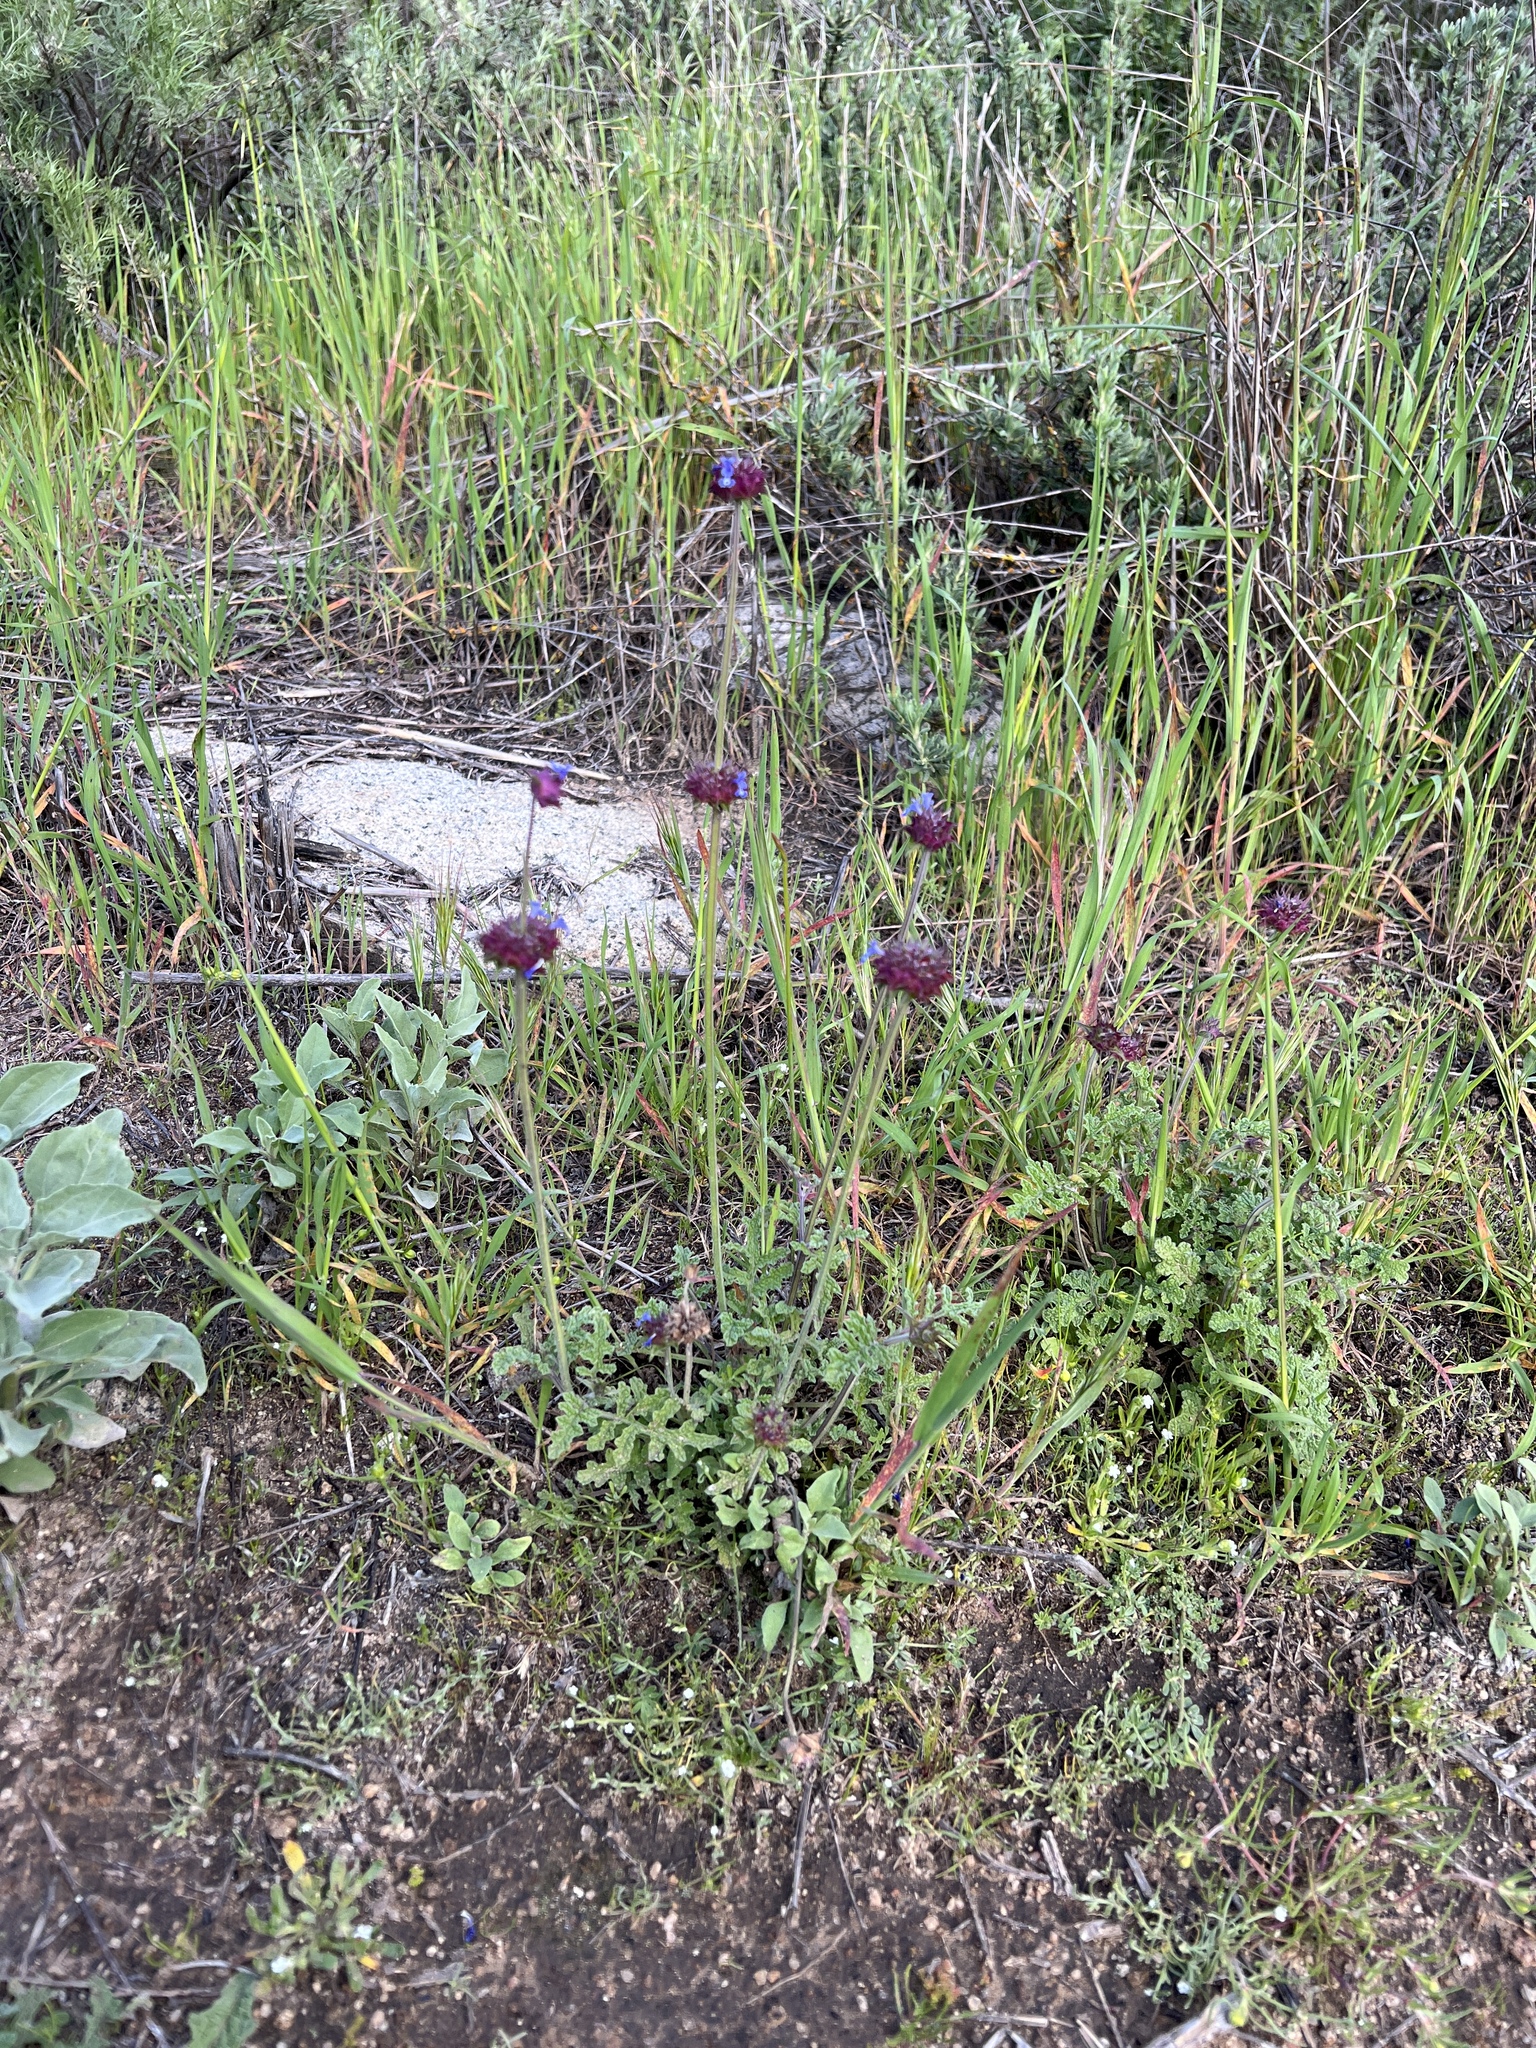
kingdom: Plantae
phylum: Tracheophyta
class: Magnoliopsida
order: Lamiales
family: Lamiaceae
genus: Salvia
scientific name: Salvia columbariae
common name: Chia
